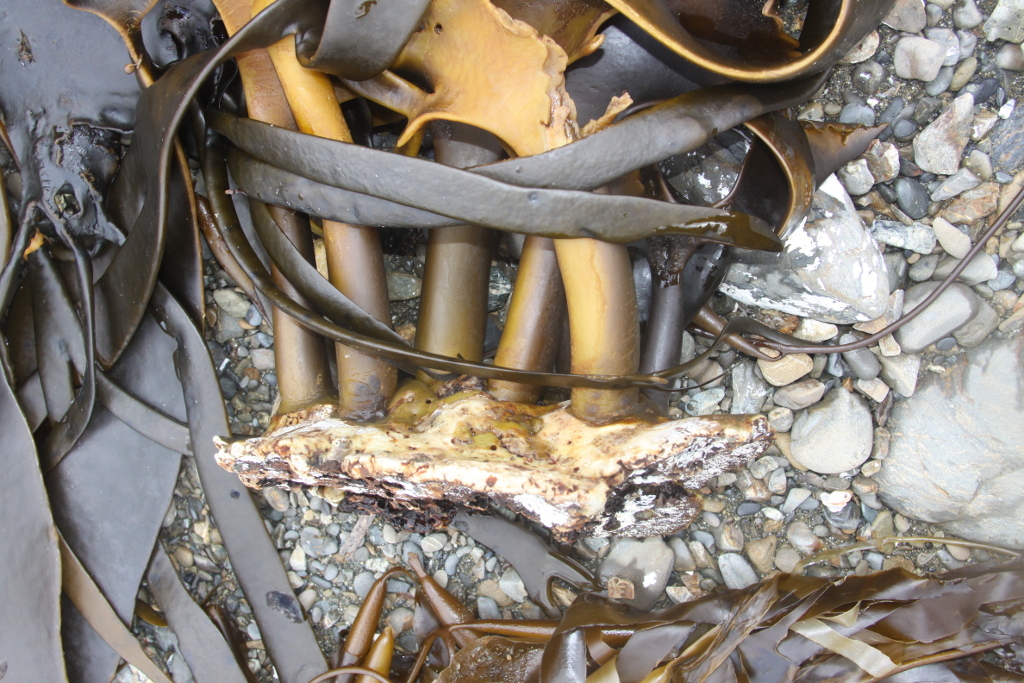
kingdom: Chromista
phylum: Ochrophyta
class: Phaeophyceae
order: Fucales
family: Durvillaeaceae
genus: Durvillaea
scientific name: Durvillaea antarctica
